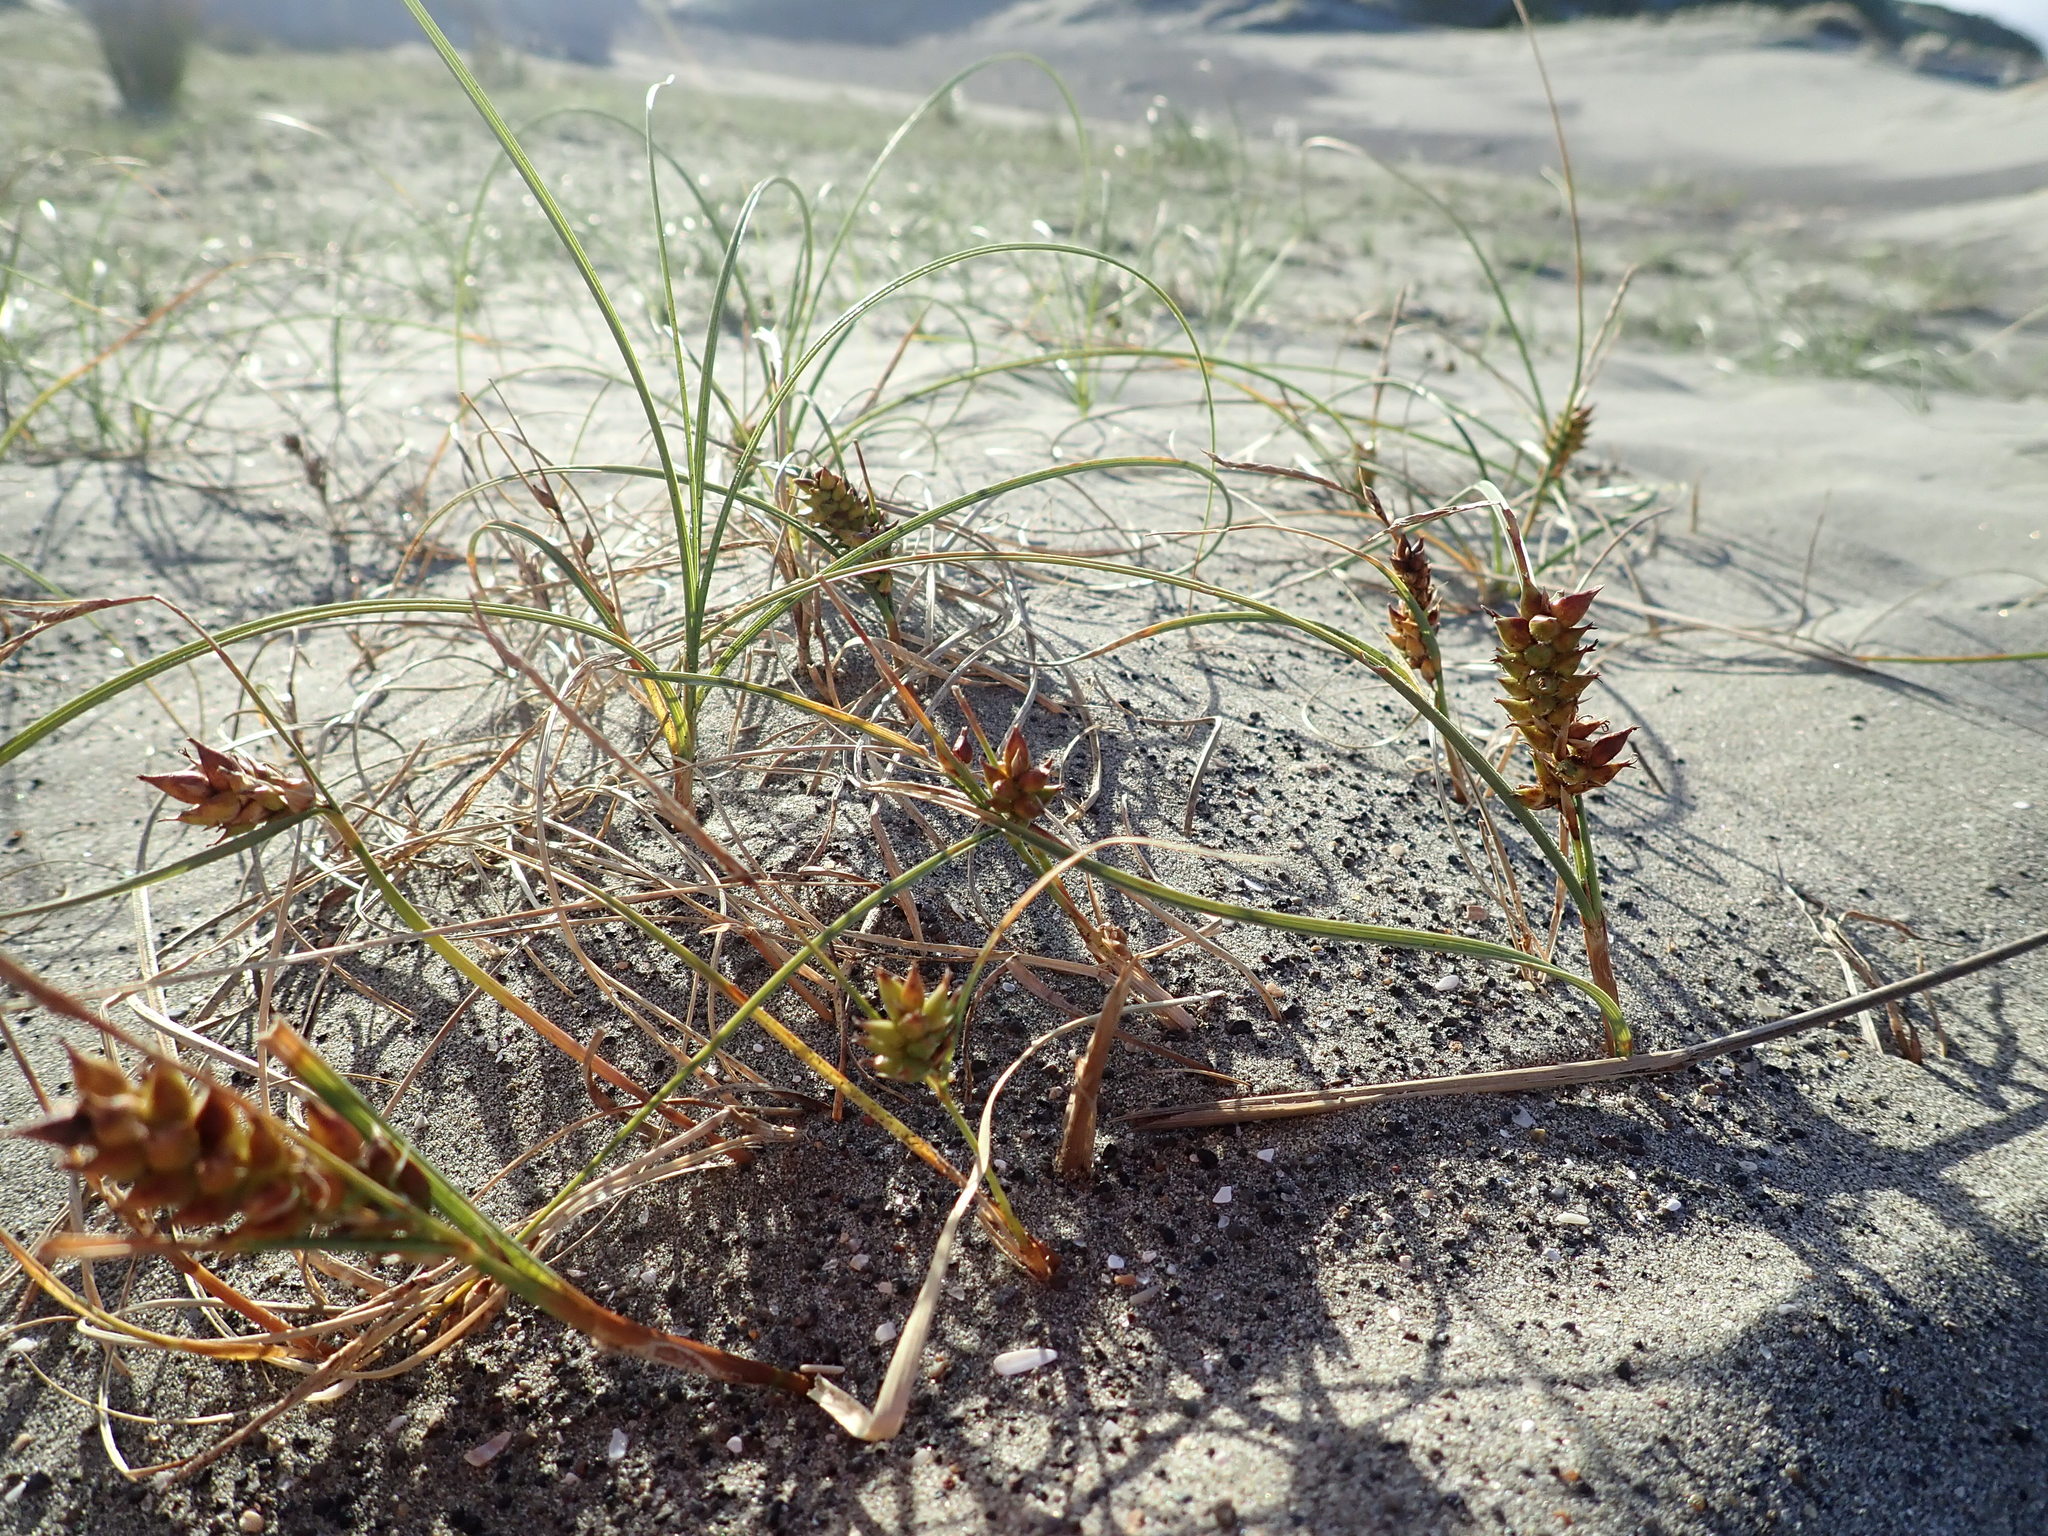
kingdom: Plantae
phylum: Tracheophyta
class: Liliopsida
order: Poales
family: Cyperaceae
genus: Carex
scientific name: Carex pumila
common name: Dwarf sedge
